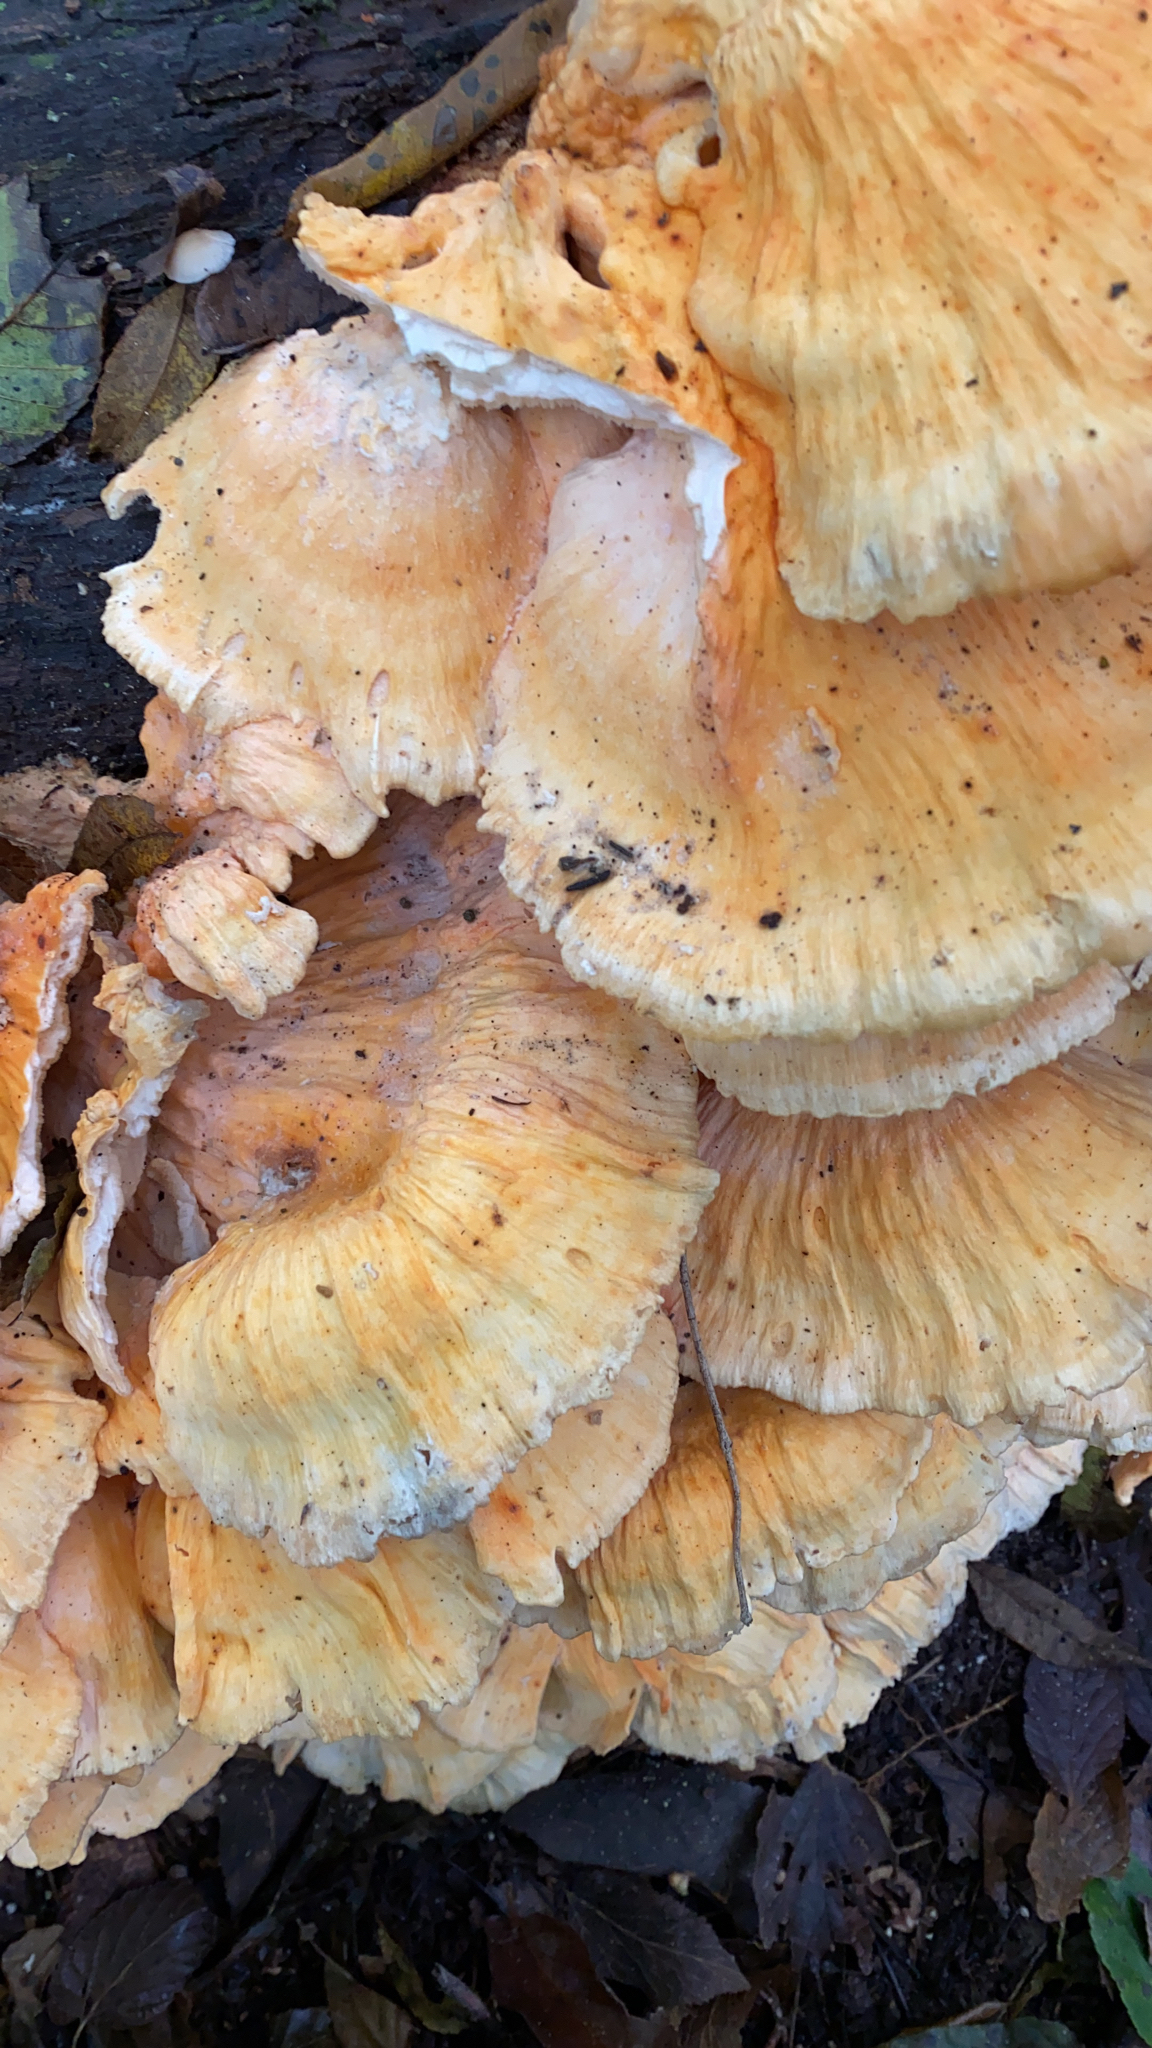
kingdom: Fungi
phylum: Basidiomycota
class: Agaricomycetes
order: Polyporales
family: Laetiporaceae
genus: Laetiporus
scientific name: Laetiporus sulphureus
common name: Chicken of the woods
